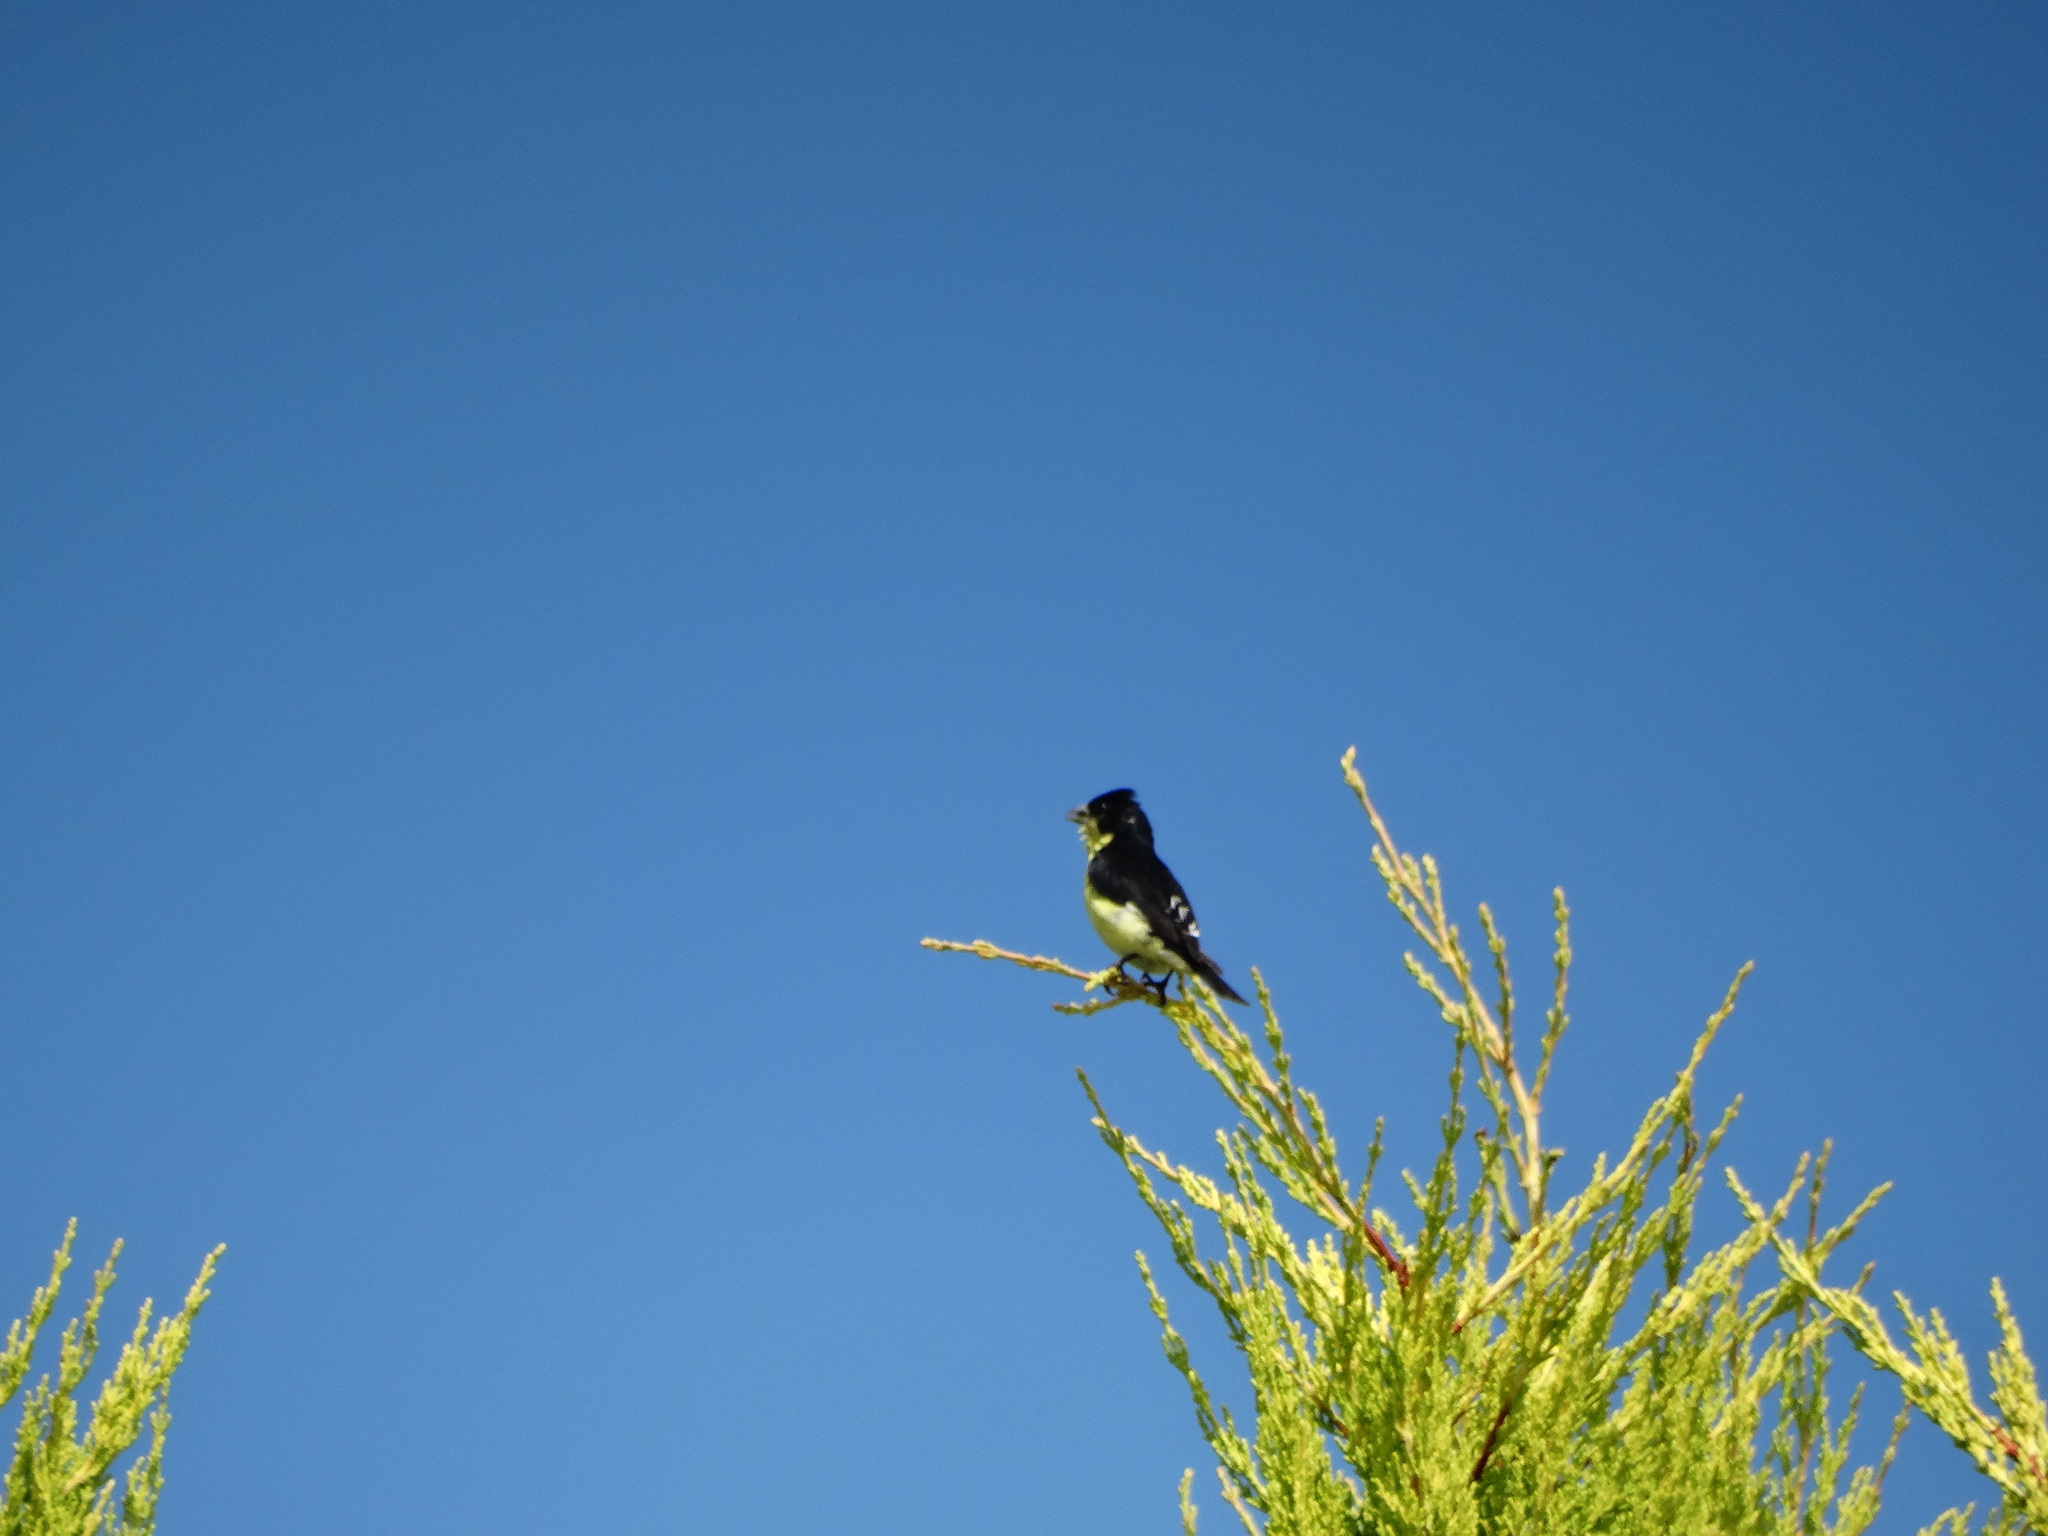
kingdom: Animalia
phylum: Chordata
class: Aves
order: Passeriformes
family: Fringillidae
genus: Spinus
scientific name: Spinus psaltria
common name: Lesser goldfinch
